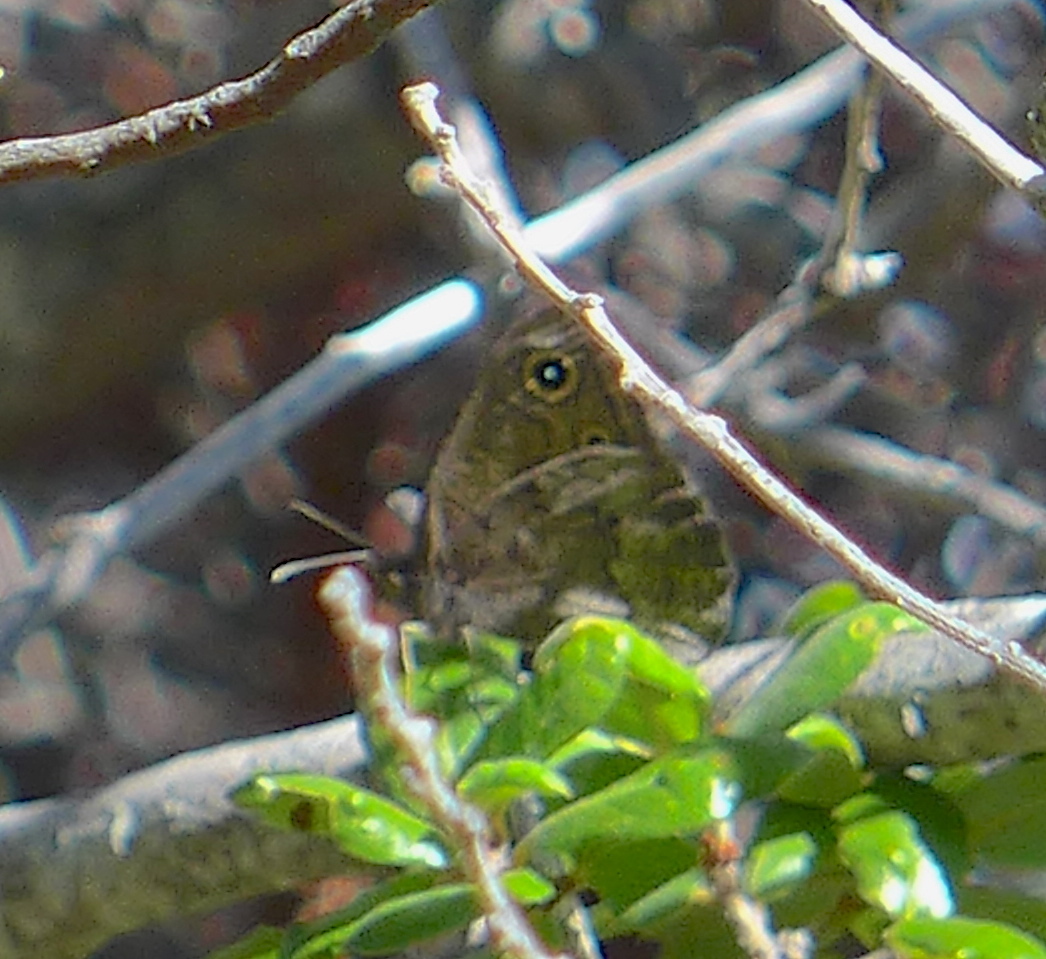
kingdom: Animalia
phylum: Arthropoda
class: Insecta
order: Lepidoptera
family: Nymphalidae
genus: Cercyonis
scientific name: Cercyonis pegala
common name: Common wood-nymph
